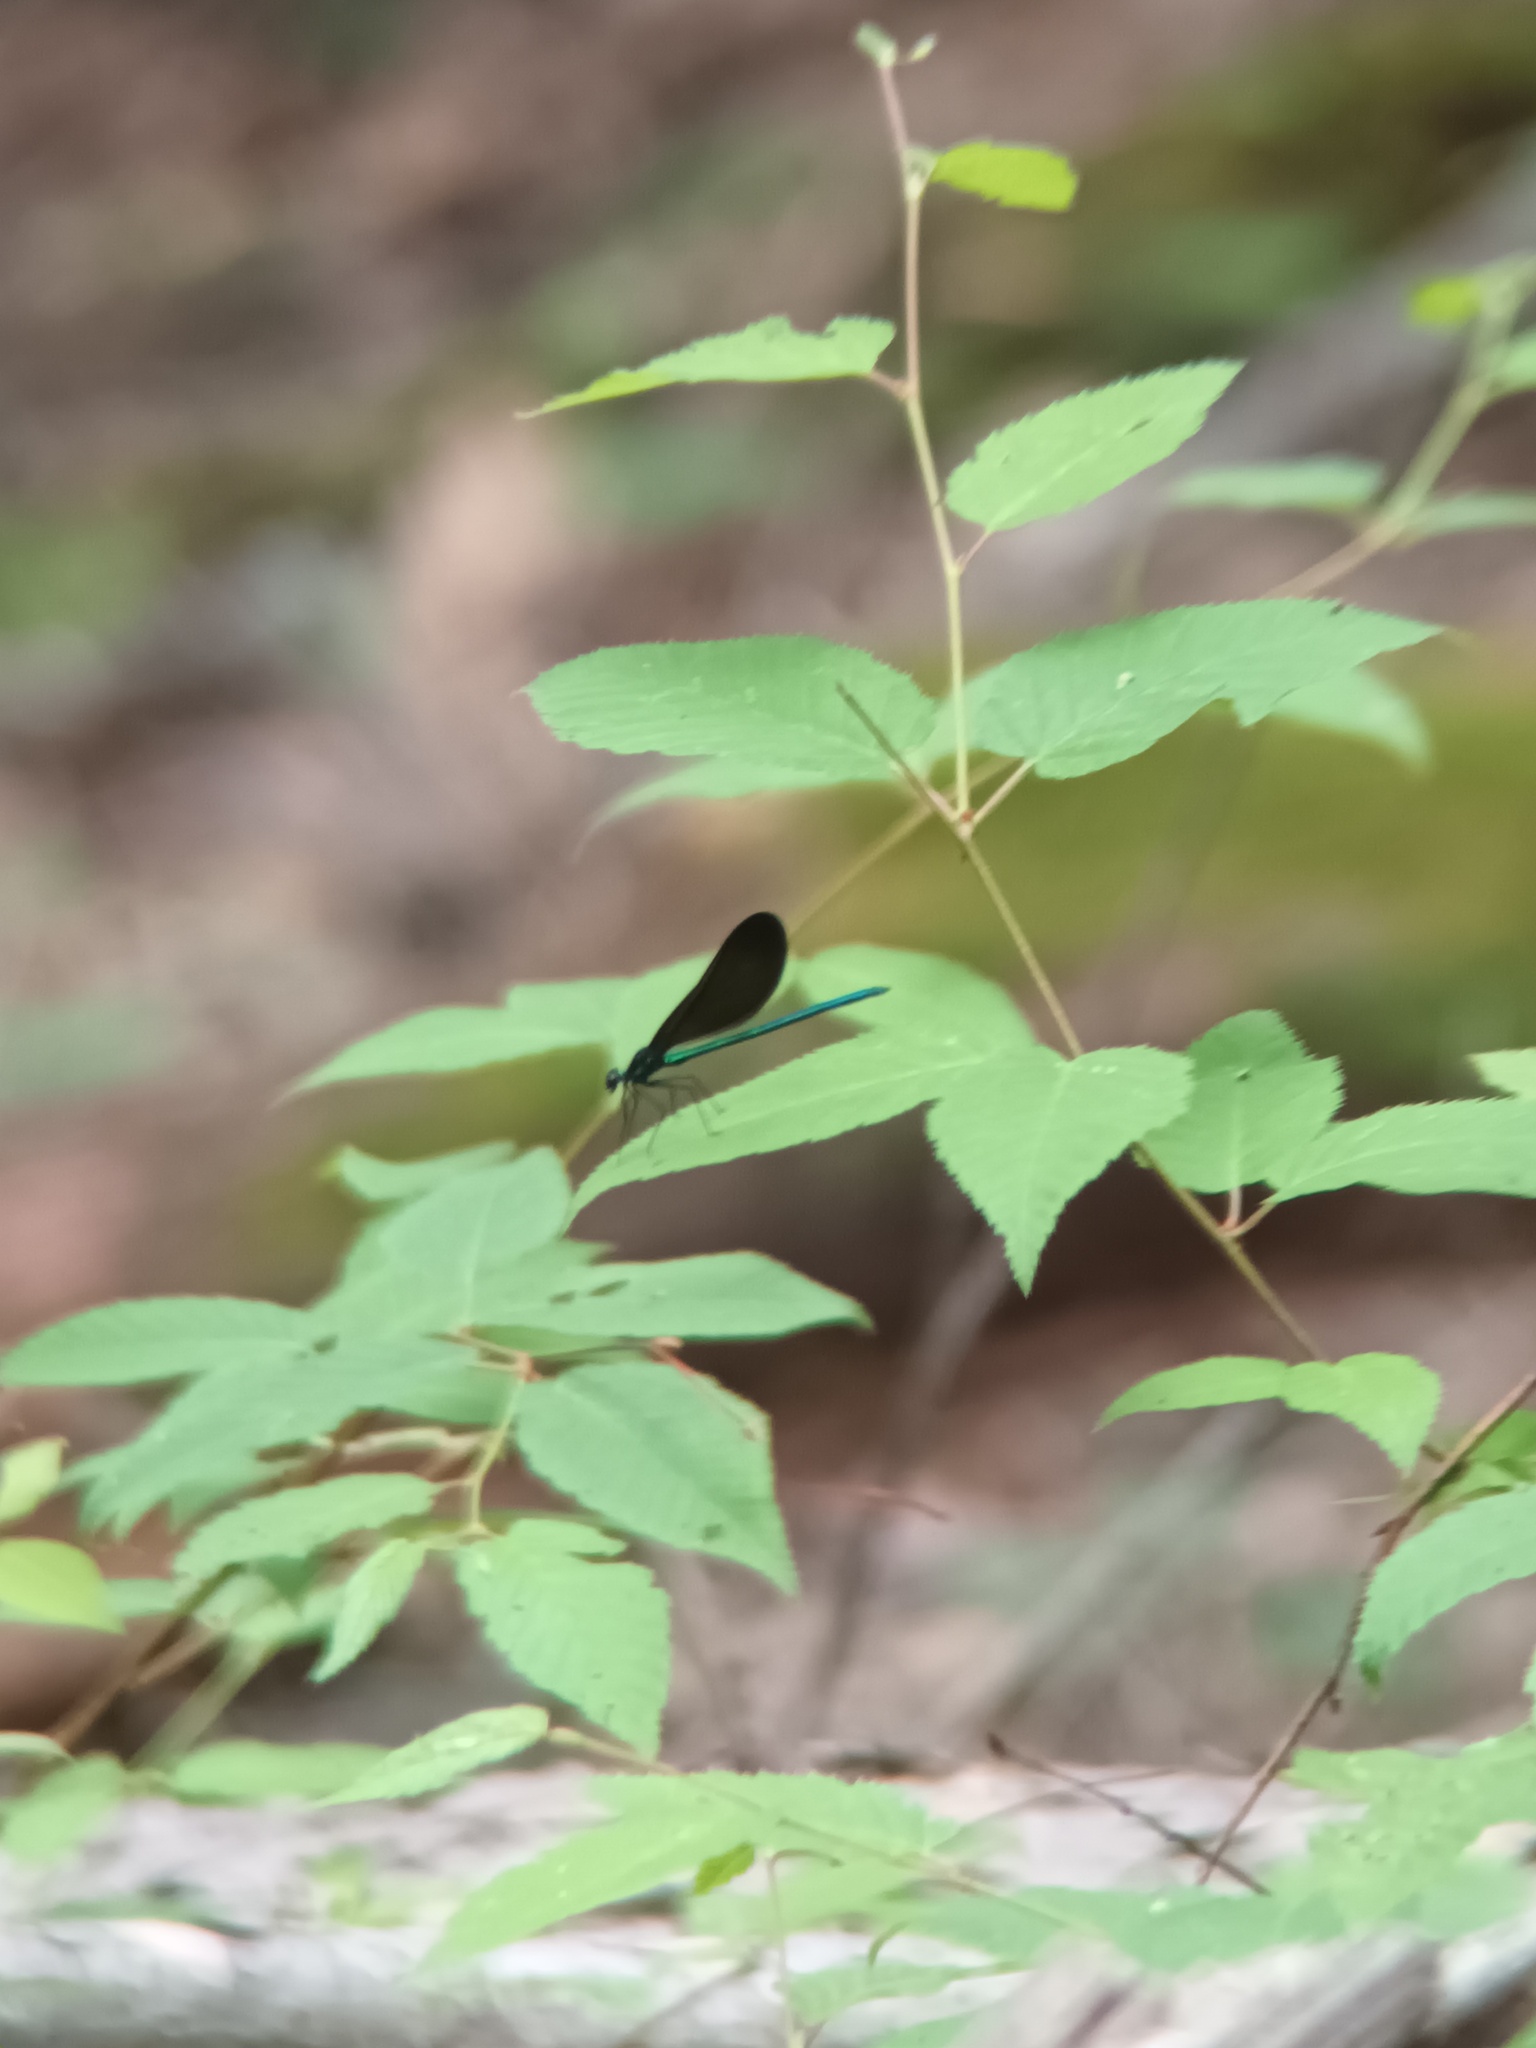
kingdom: Animalia
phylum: Arthropoda
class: Insecta
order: Odonata
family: Calopterygidae
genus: Calopteryx
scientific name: Calopteryx maculata
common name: Ebony jewelwing
